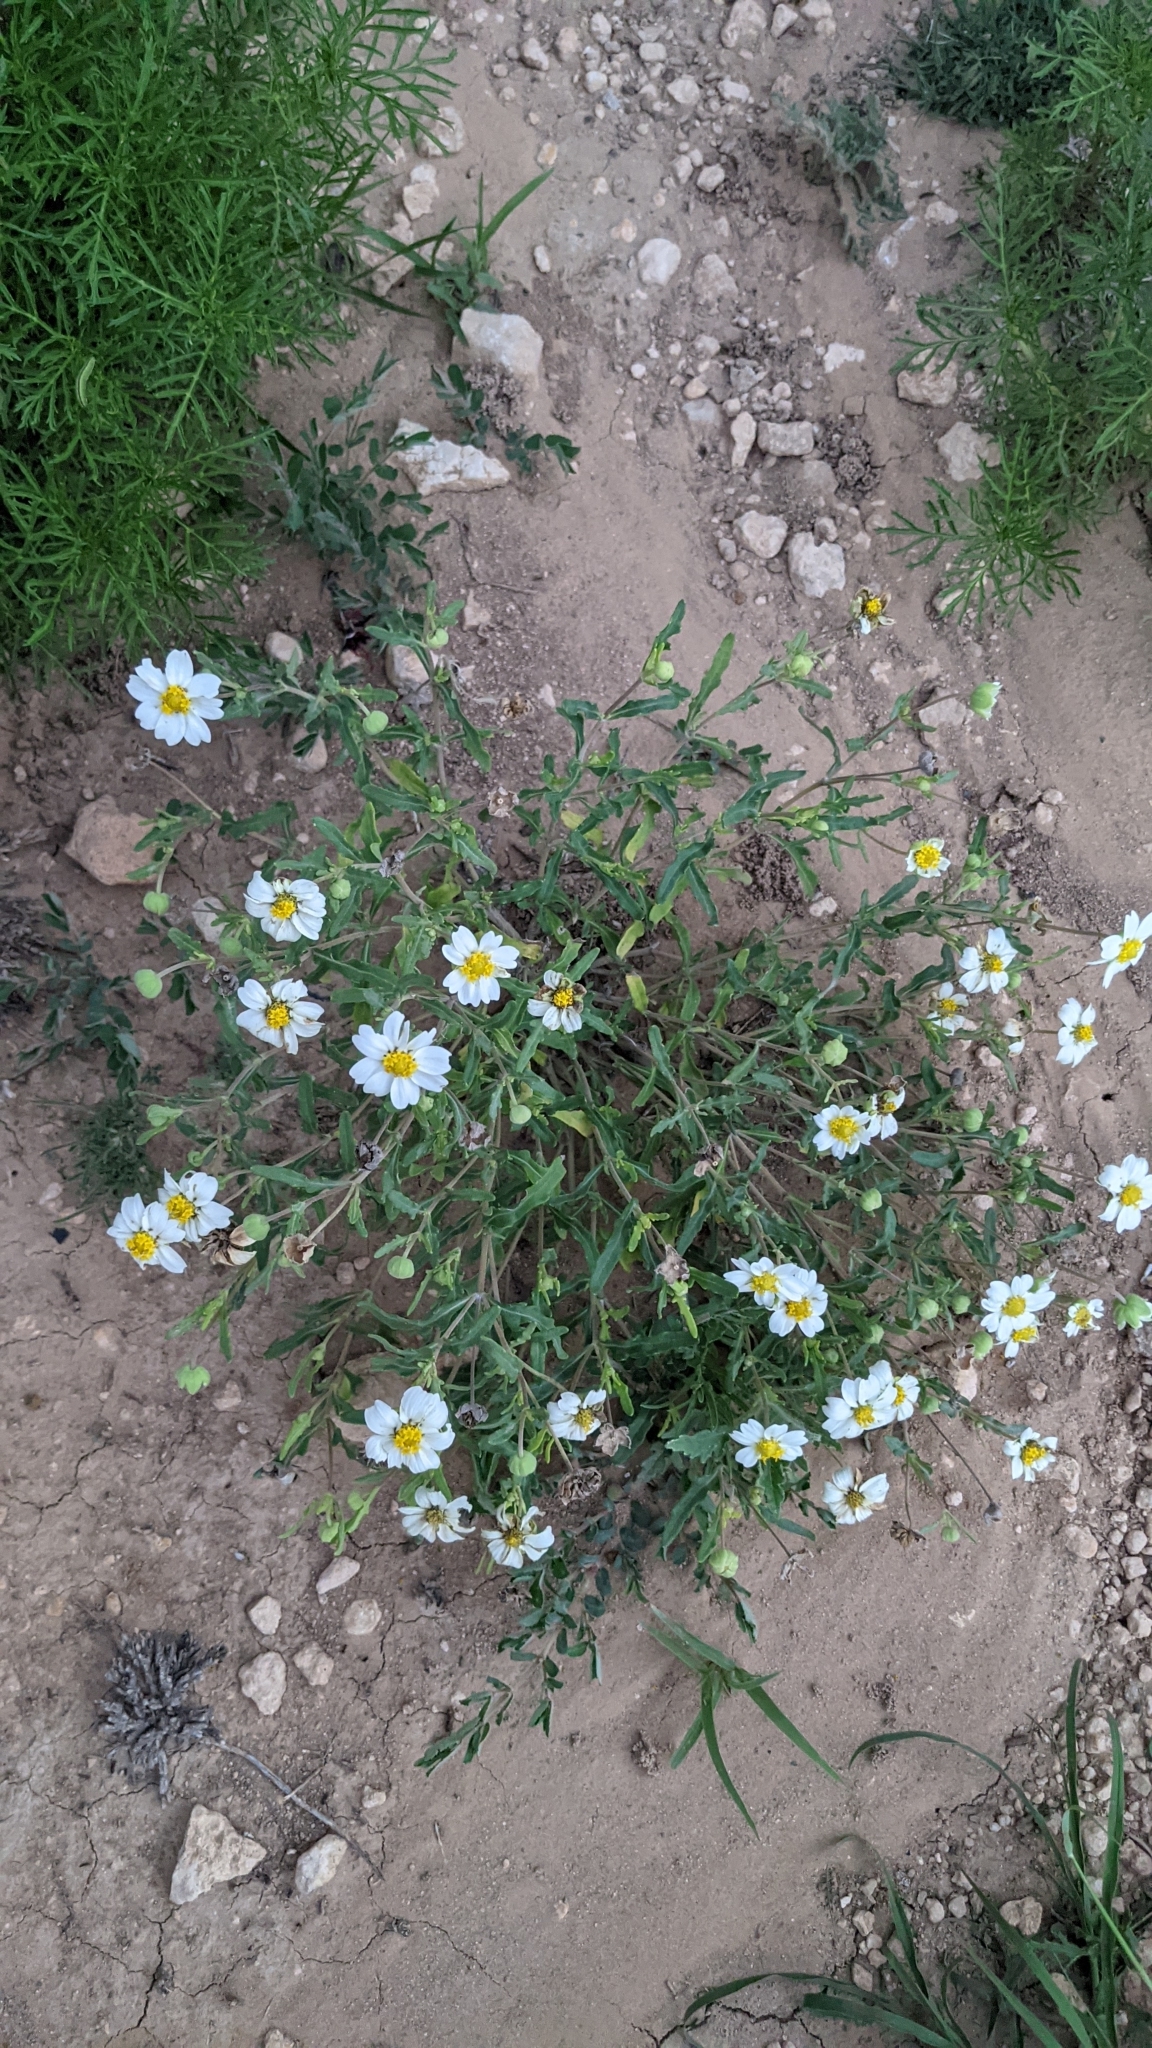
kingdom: Plantae
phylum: Tracheophyta
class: Magnoliopsida
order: Asterales
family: Asteraceae
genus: Melampodium
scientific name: Melampodium leucanthum
